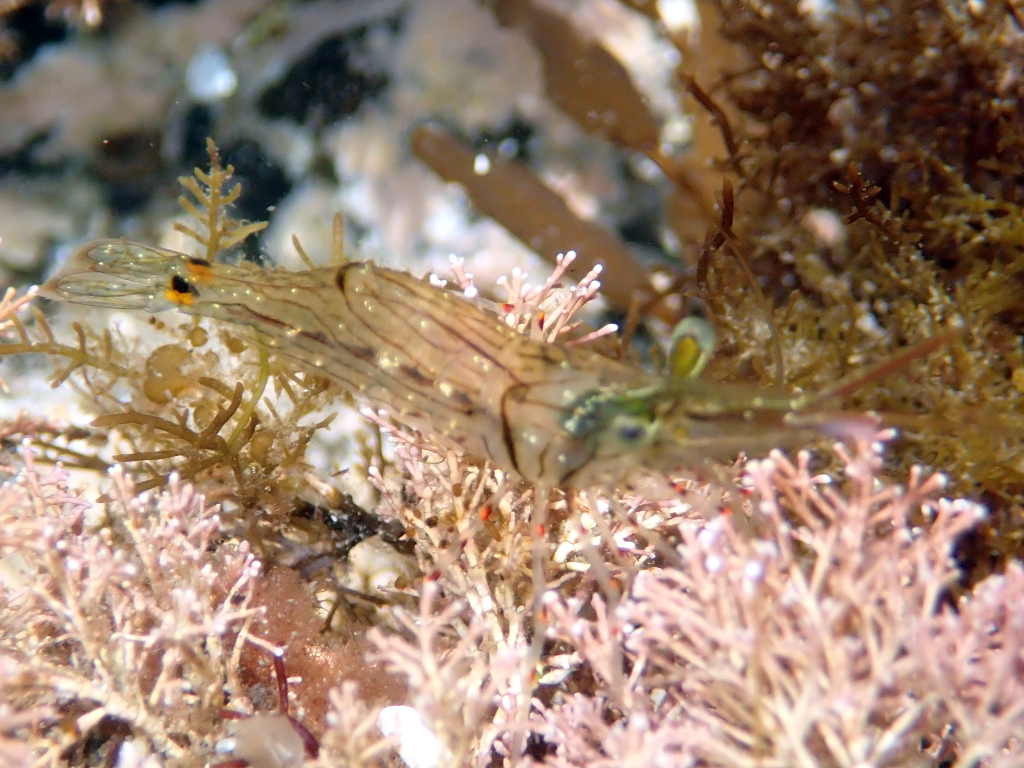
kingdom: Animalia
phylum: Arthropoda
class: Malacostraca
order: Decapoda
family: Palaemonidae
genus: Palaemon
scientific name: Palaemon affinis
